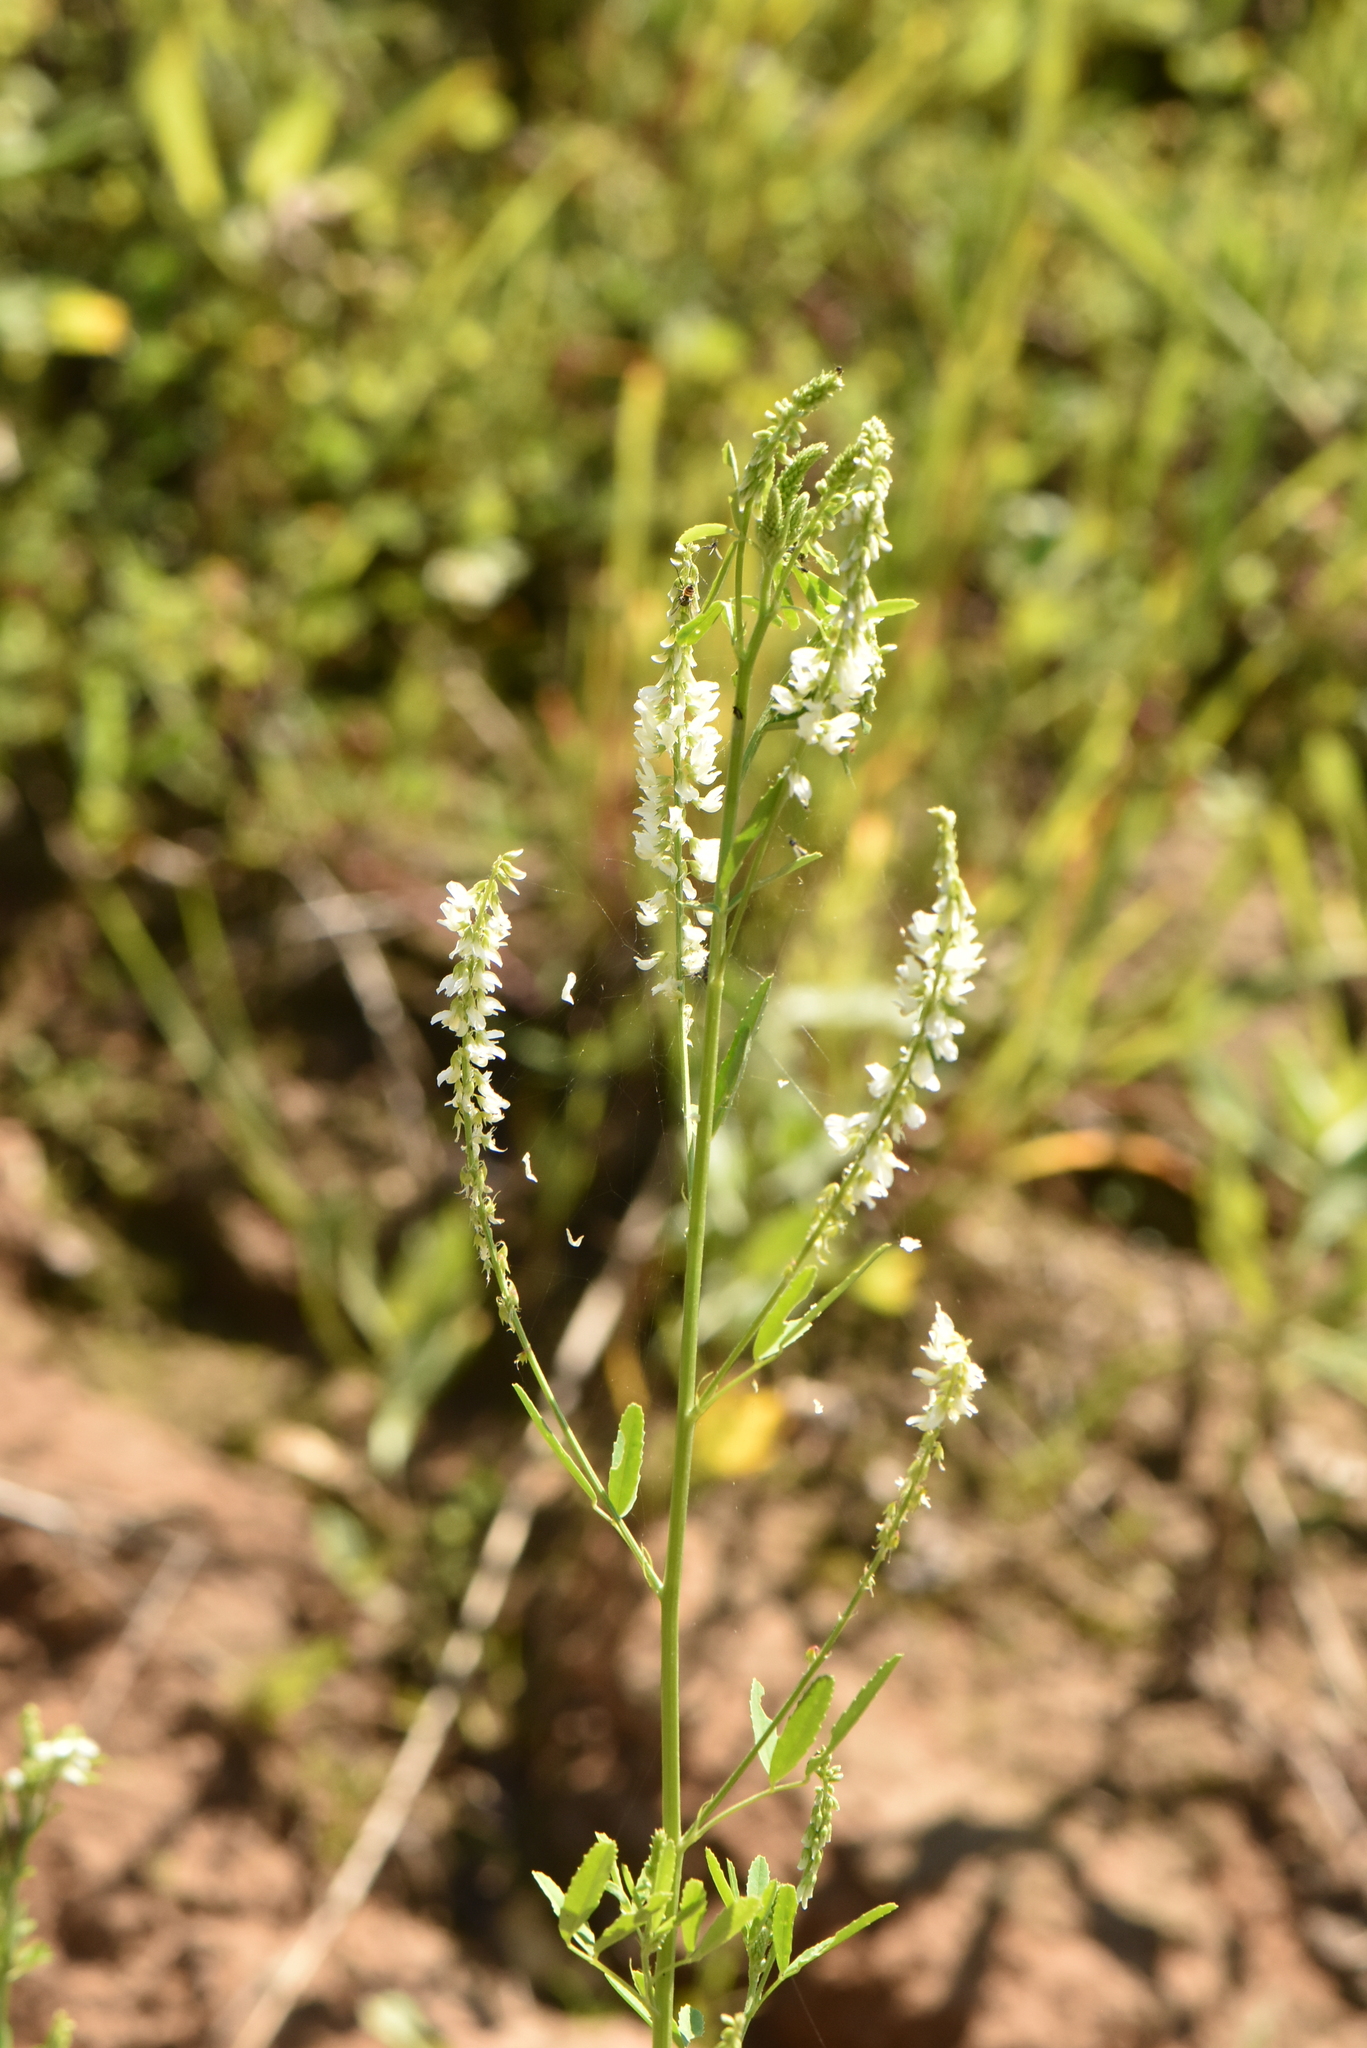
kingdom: Plantae
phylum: Tracheophyta
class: Magnoliopsida
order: Fabales
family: Fabaceae
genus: Melilotus
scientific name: Melilotus albus
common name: White melilot
